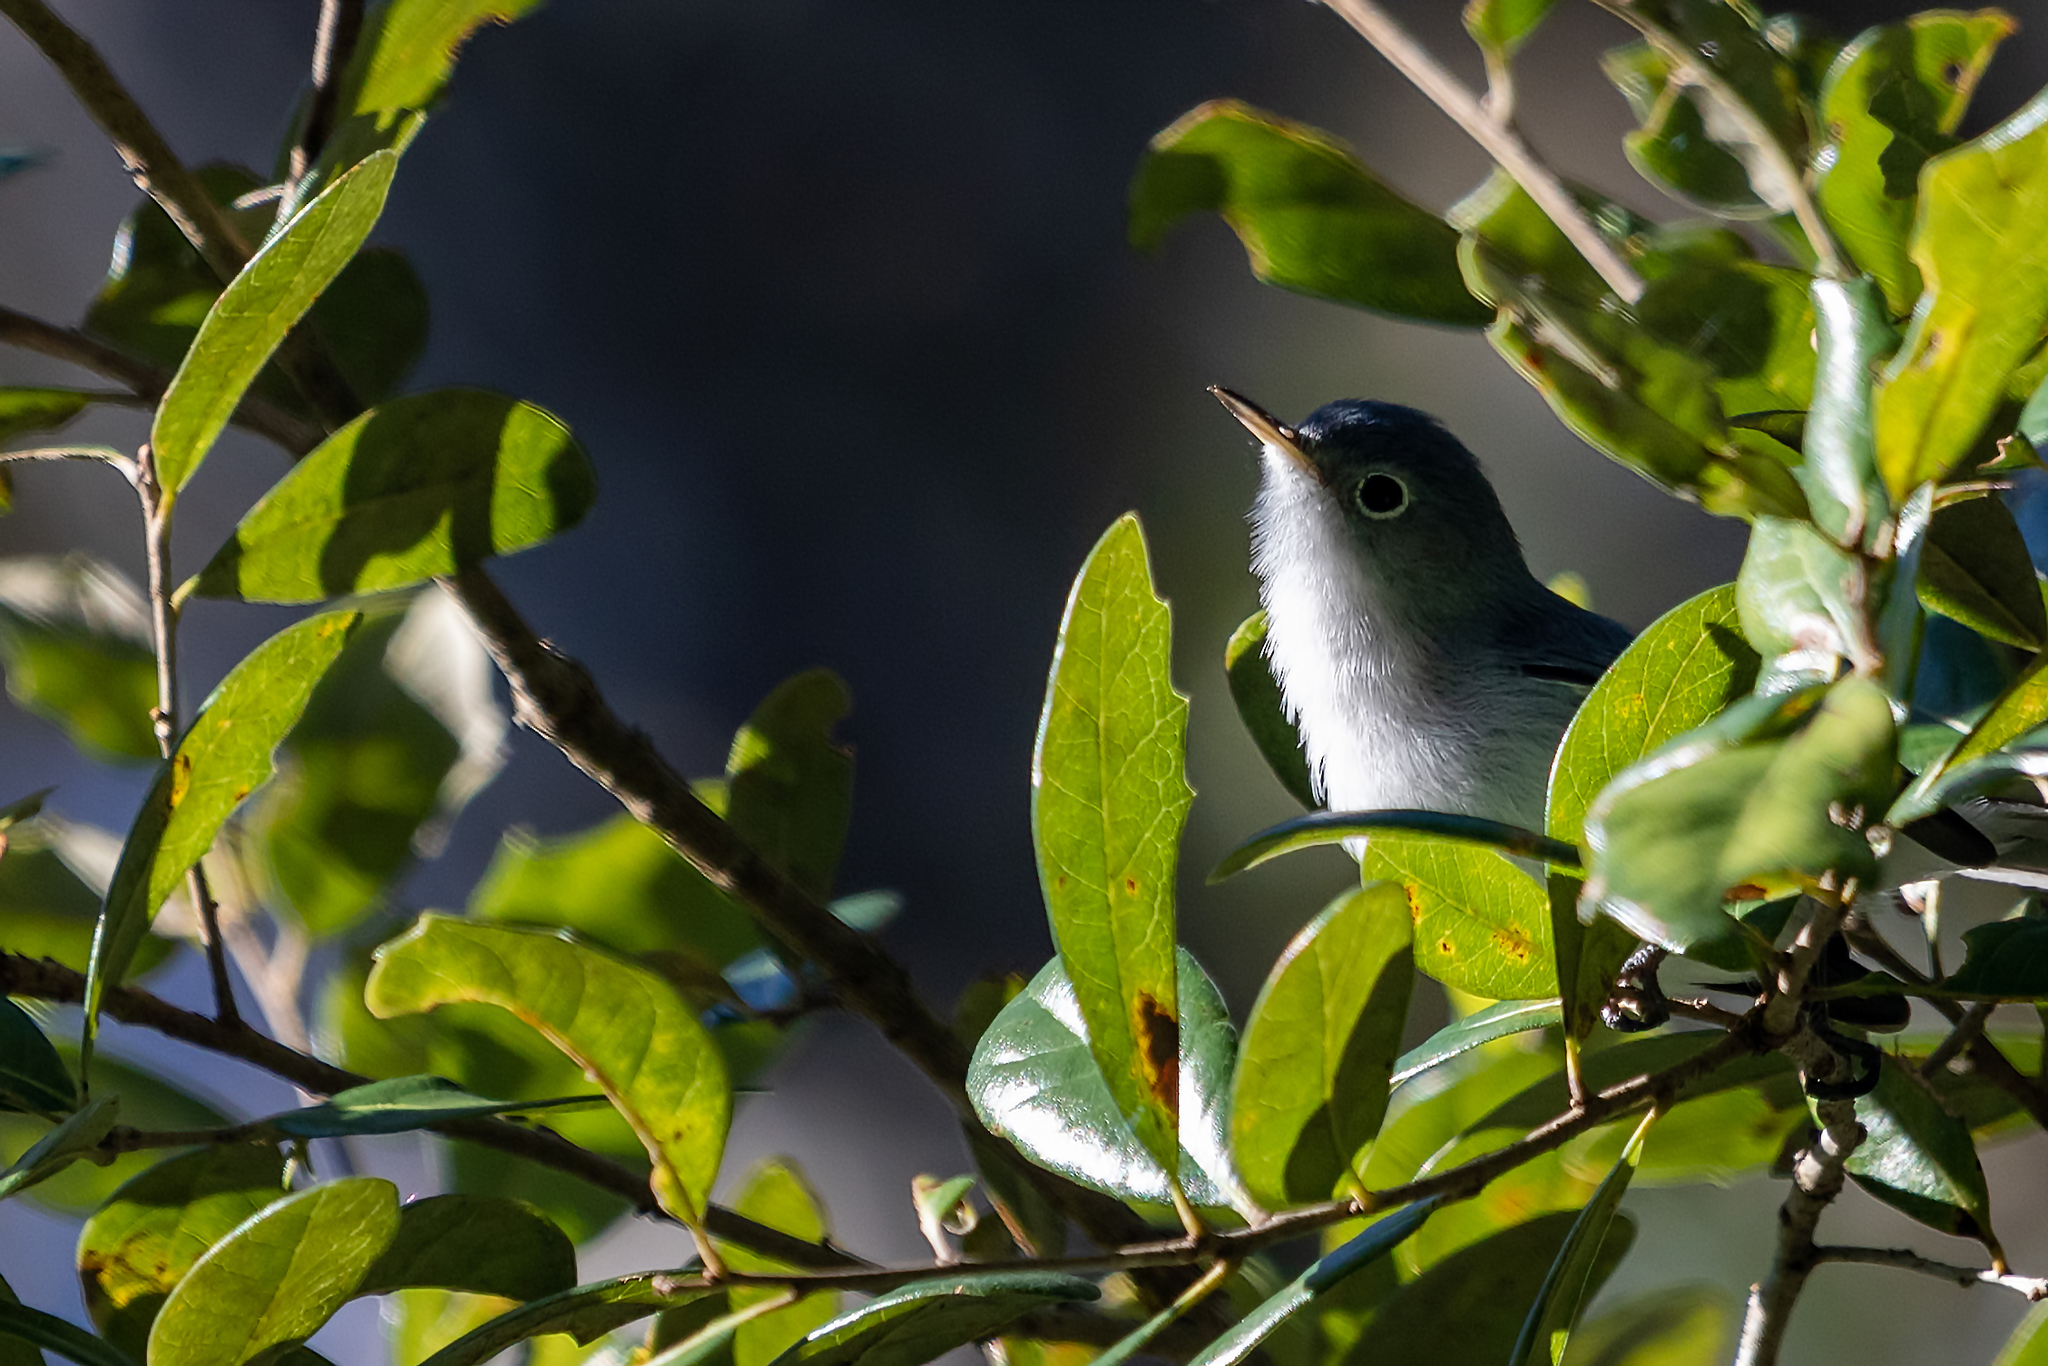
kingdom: Animalia
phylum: Chordata
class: Aves
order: Passeriformes
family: Polioptilidae
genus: Polioptila
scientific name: Polioptila caerulea
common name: Blue-gray gnatcatcher
